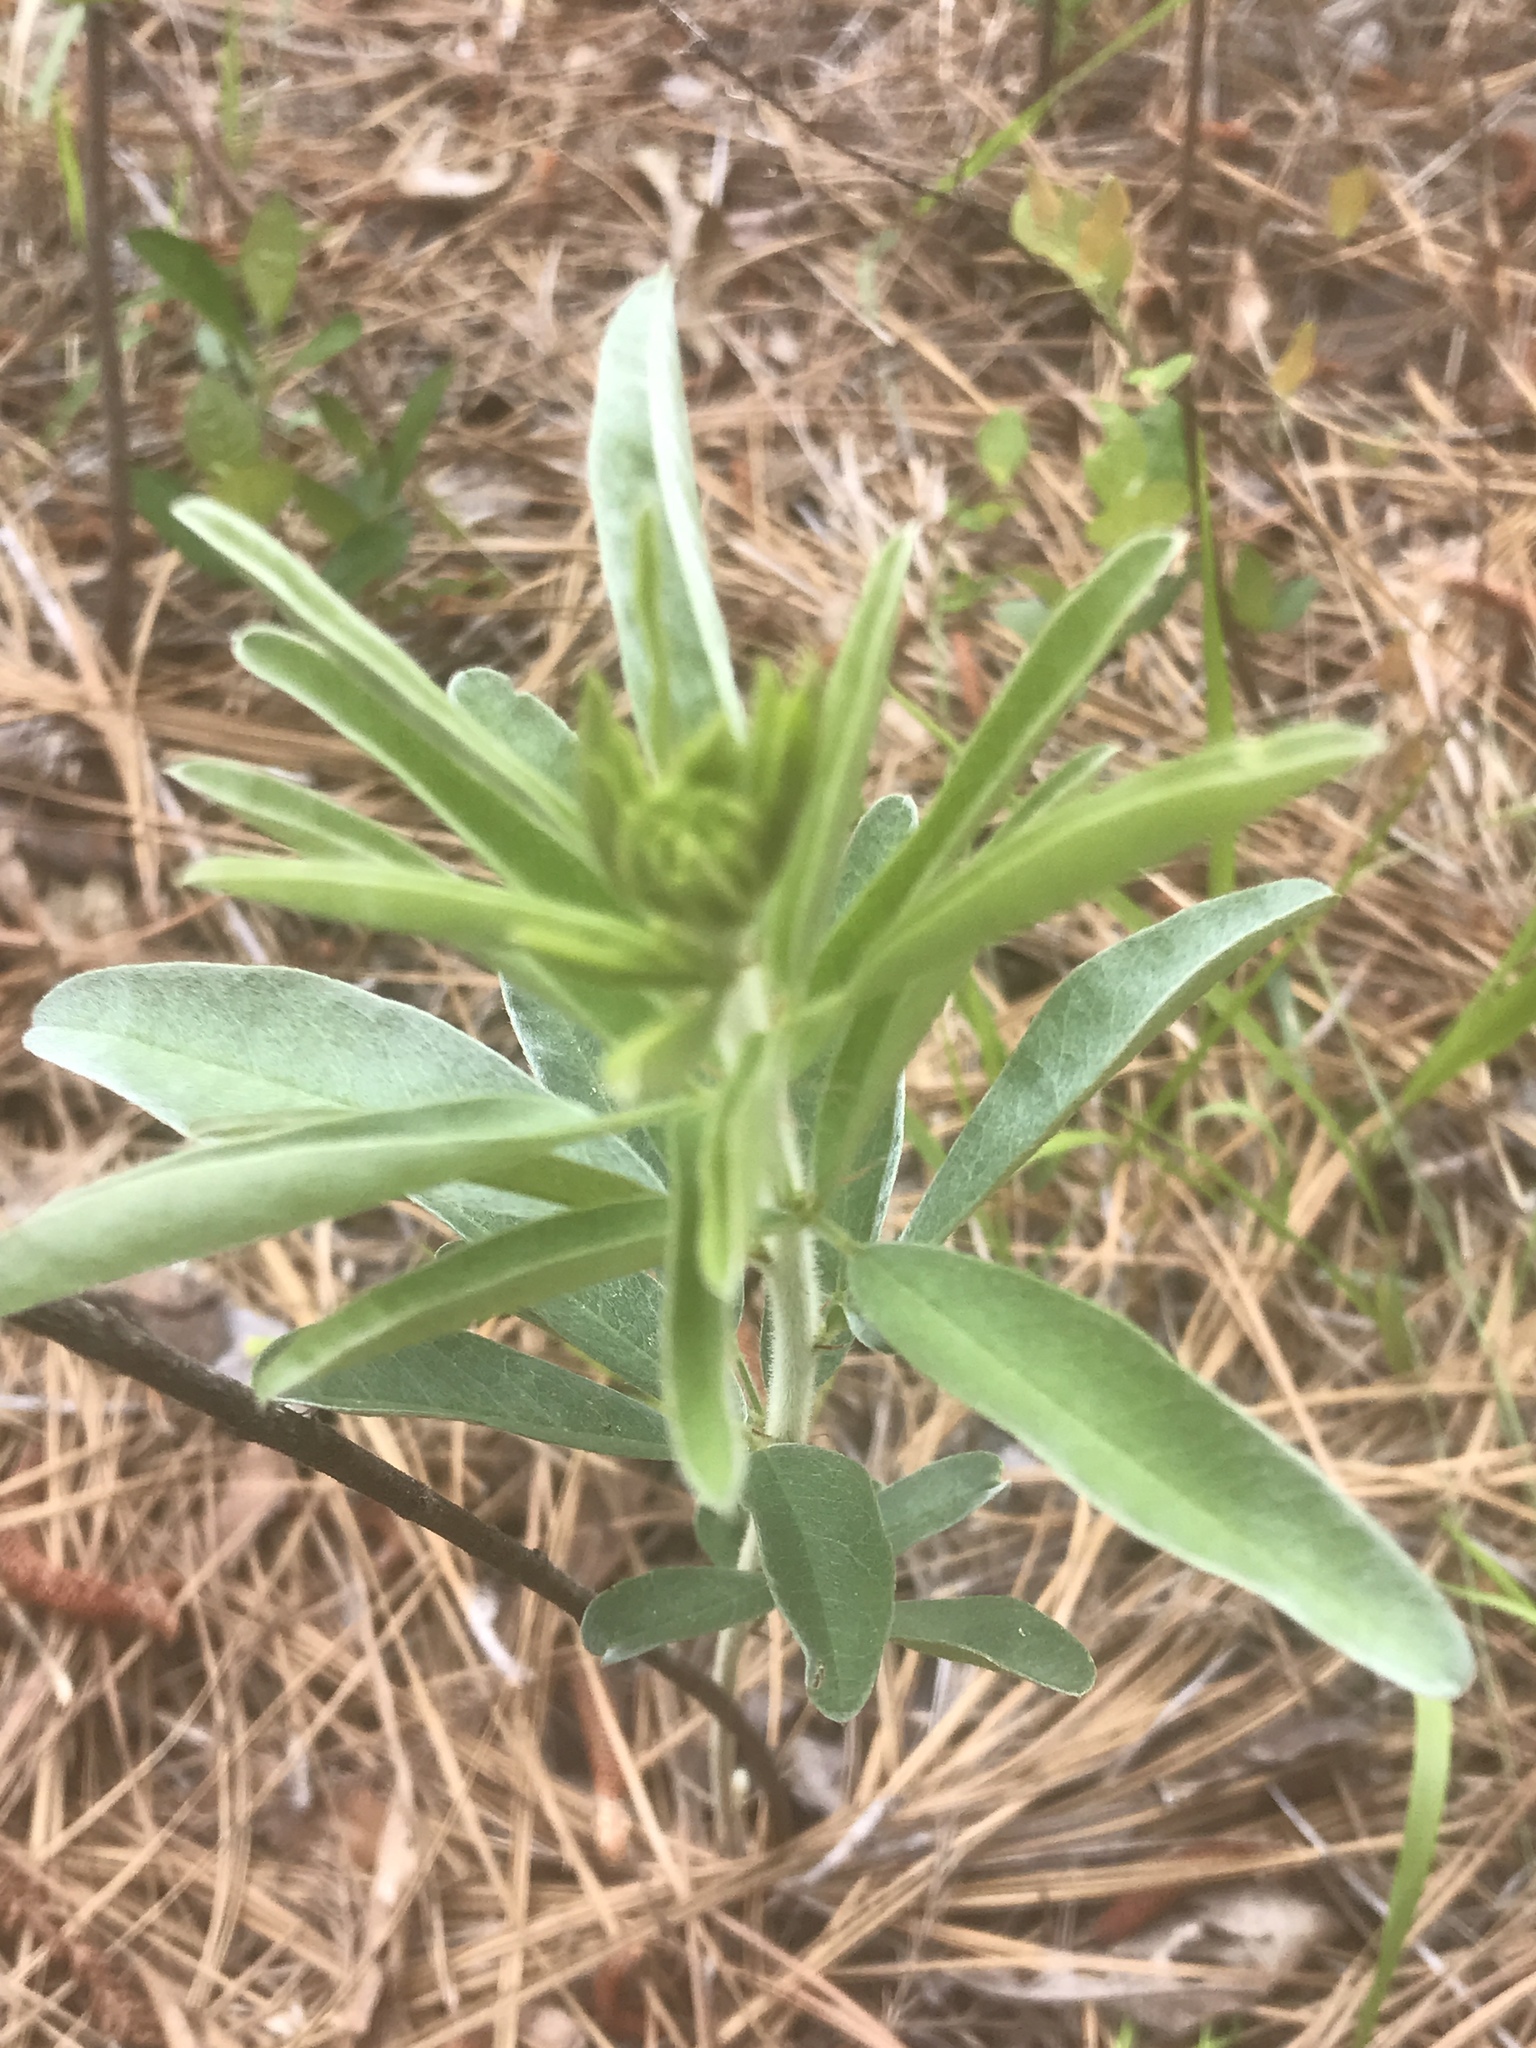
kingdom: Plantae
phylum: Tracheophyta
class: Magnoliopsida
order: Fabales
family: Fabaceae
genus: Lespedeza
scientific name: Lespedeza capitata
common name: Dusty clover
